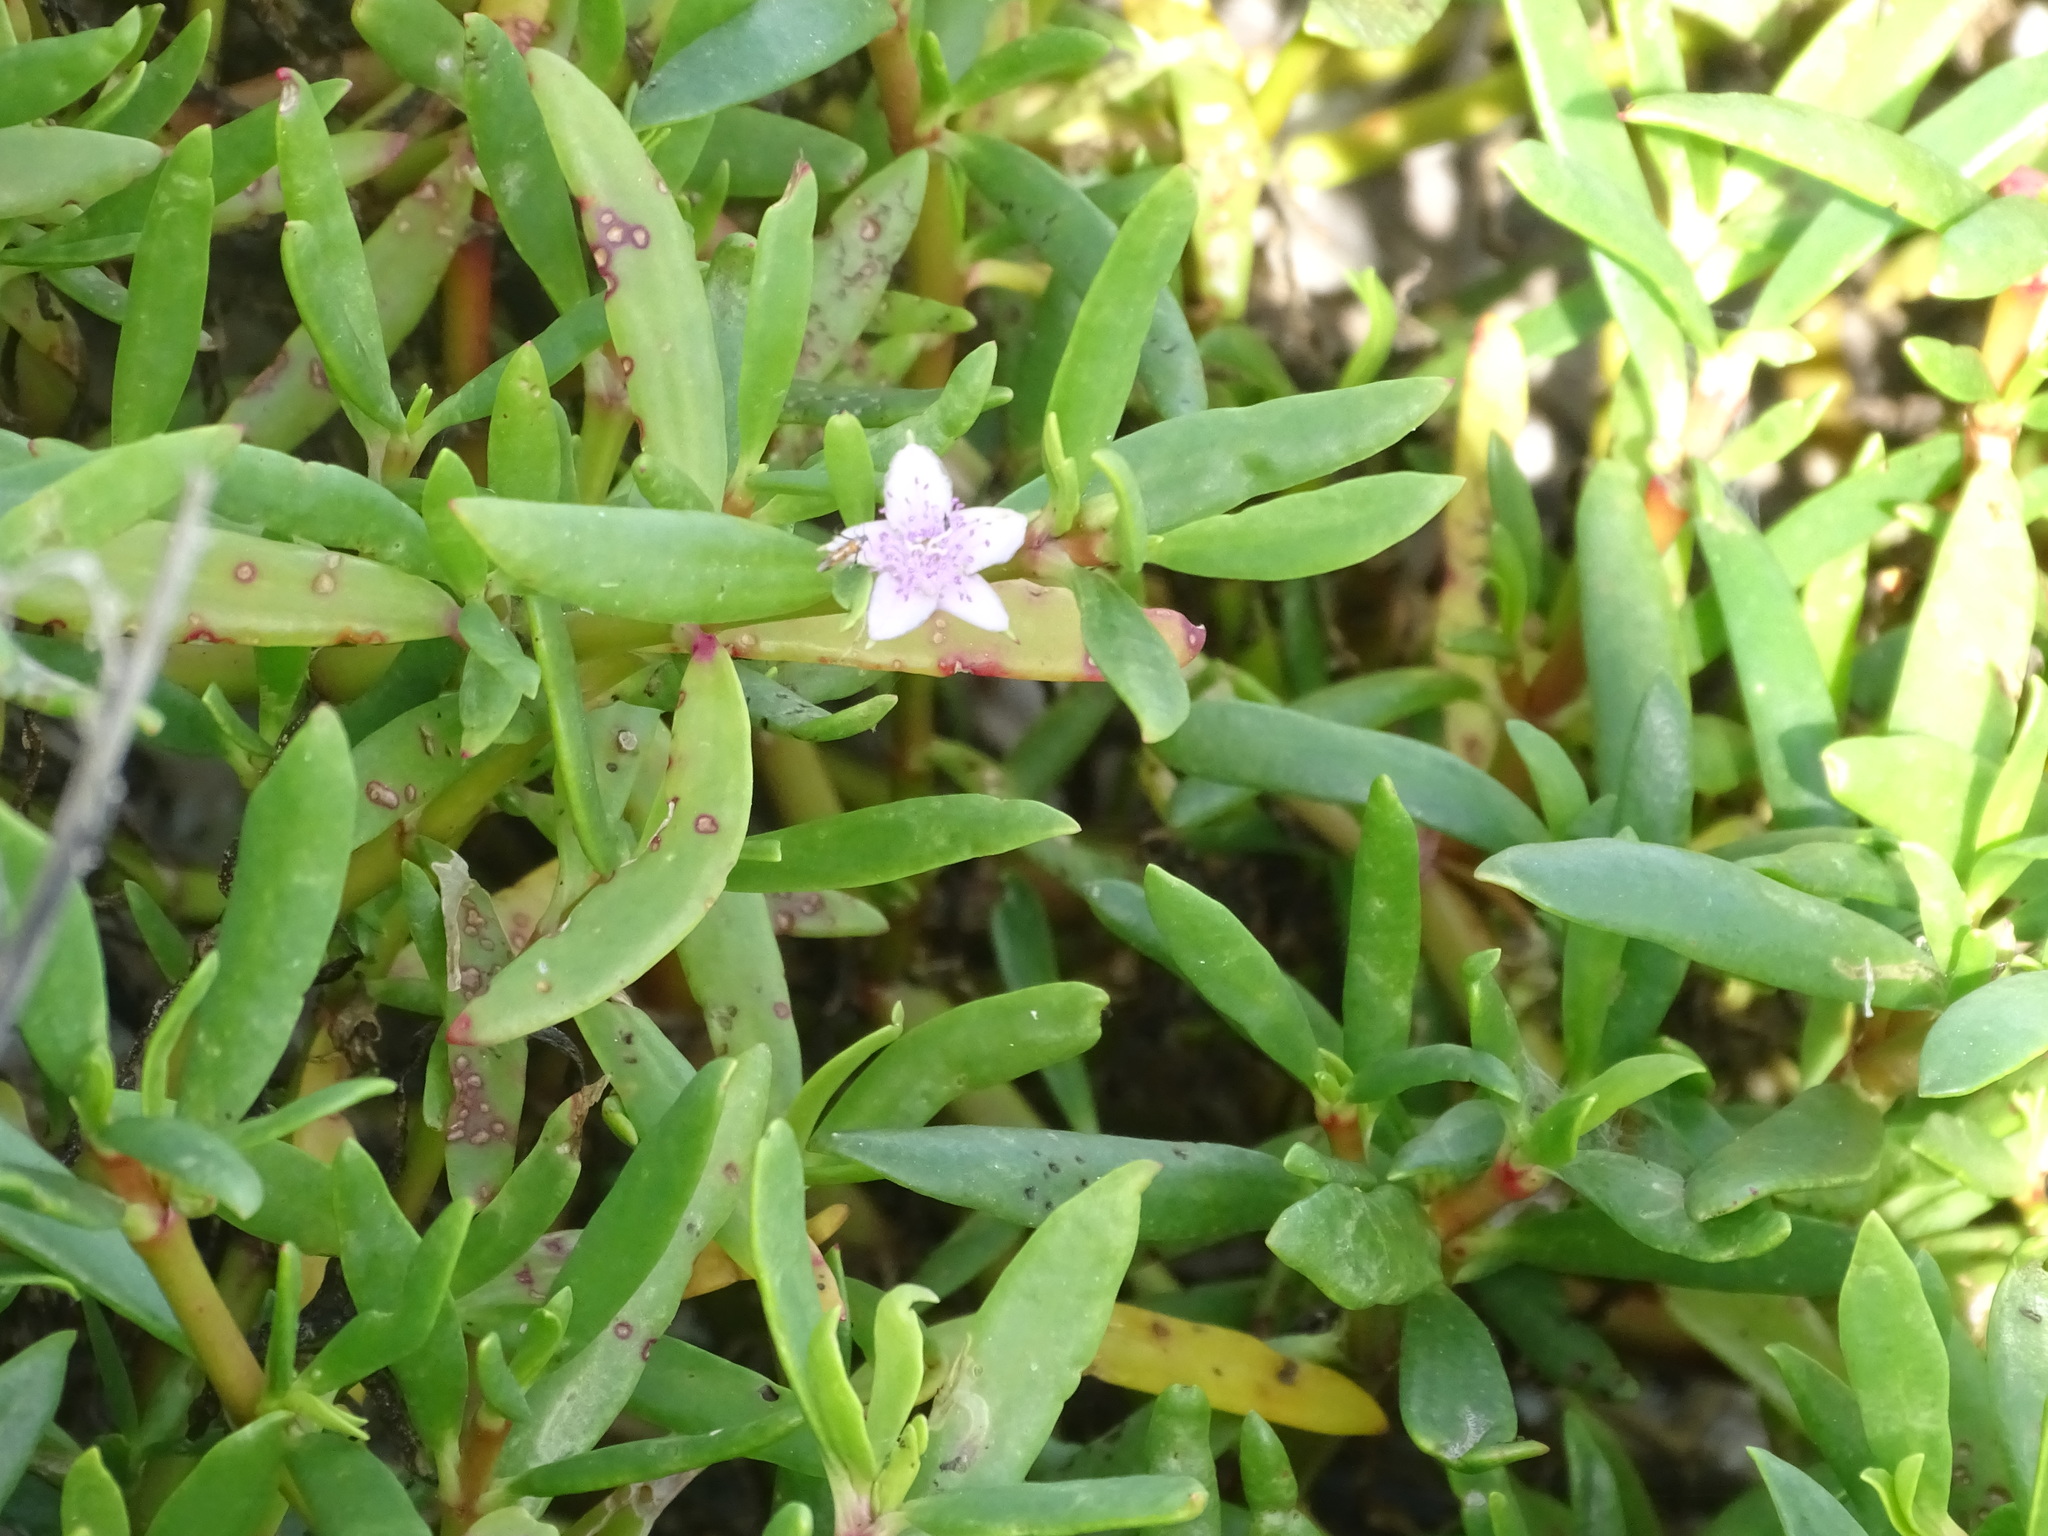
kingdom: Plantae
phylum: Tracheophyta
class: Magnoliopsida
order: Caryophyllales
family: Aizoaceae
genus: Sesuvium
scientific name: Sesuvium portulacastrum
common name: Sea-purslane
